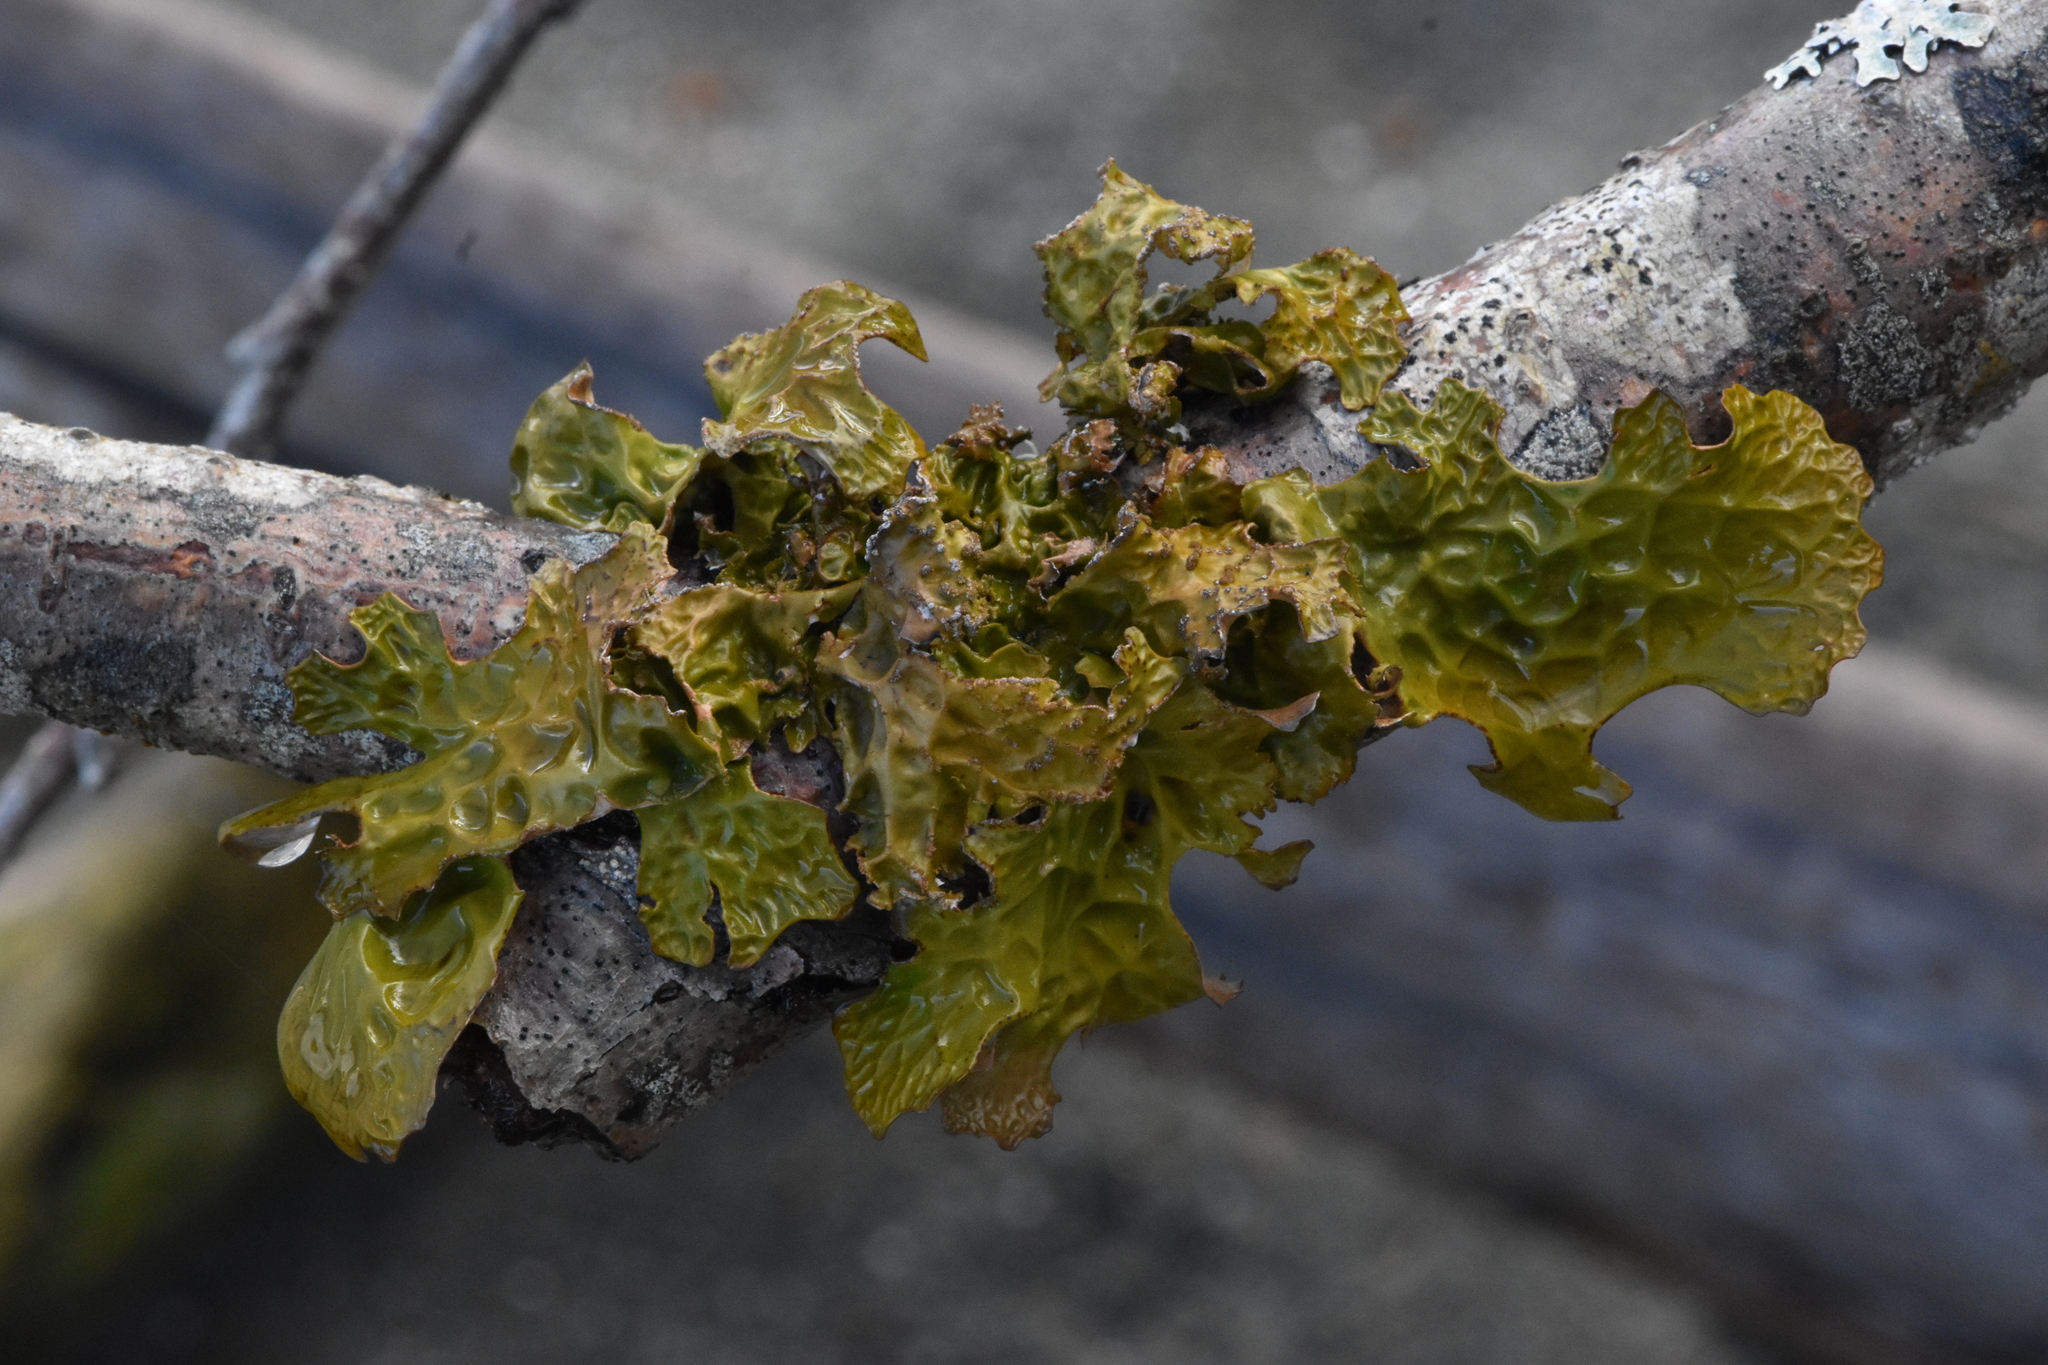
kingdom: Fungi
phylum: Ascomycota
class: Lecanoromycetes
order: Peltigerales
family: Lobariaceae
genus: Lobaria
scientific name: Lobaria pulmonaria
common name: Lungwort
